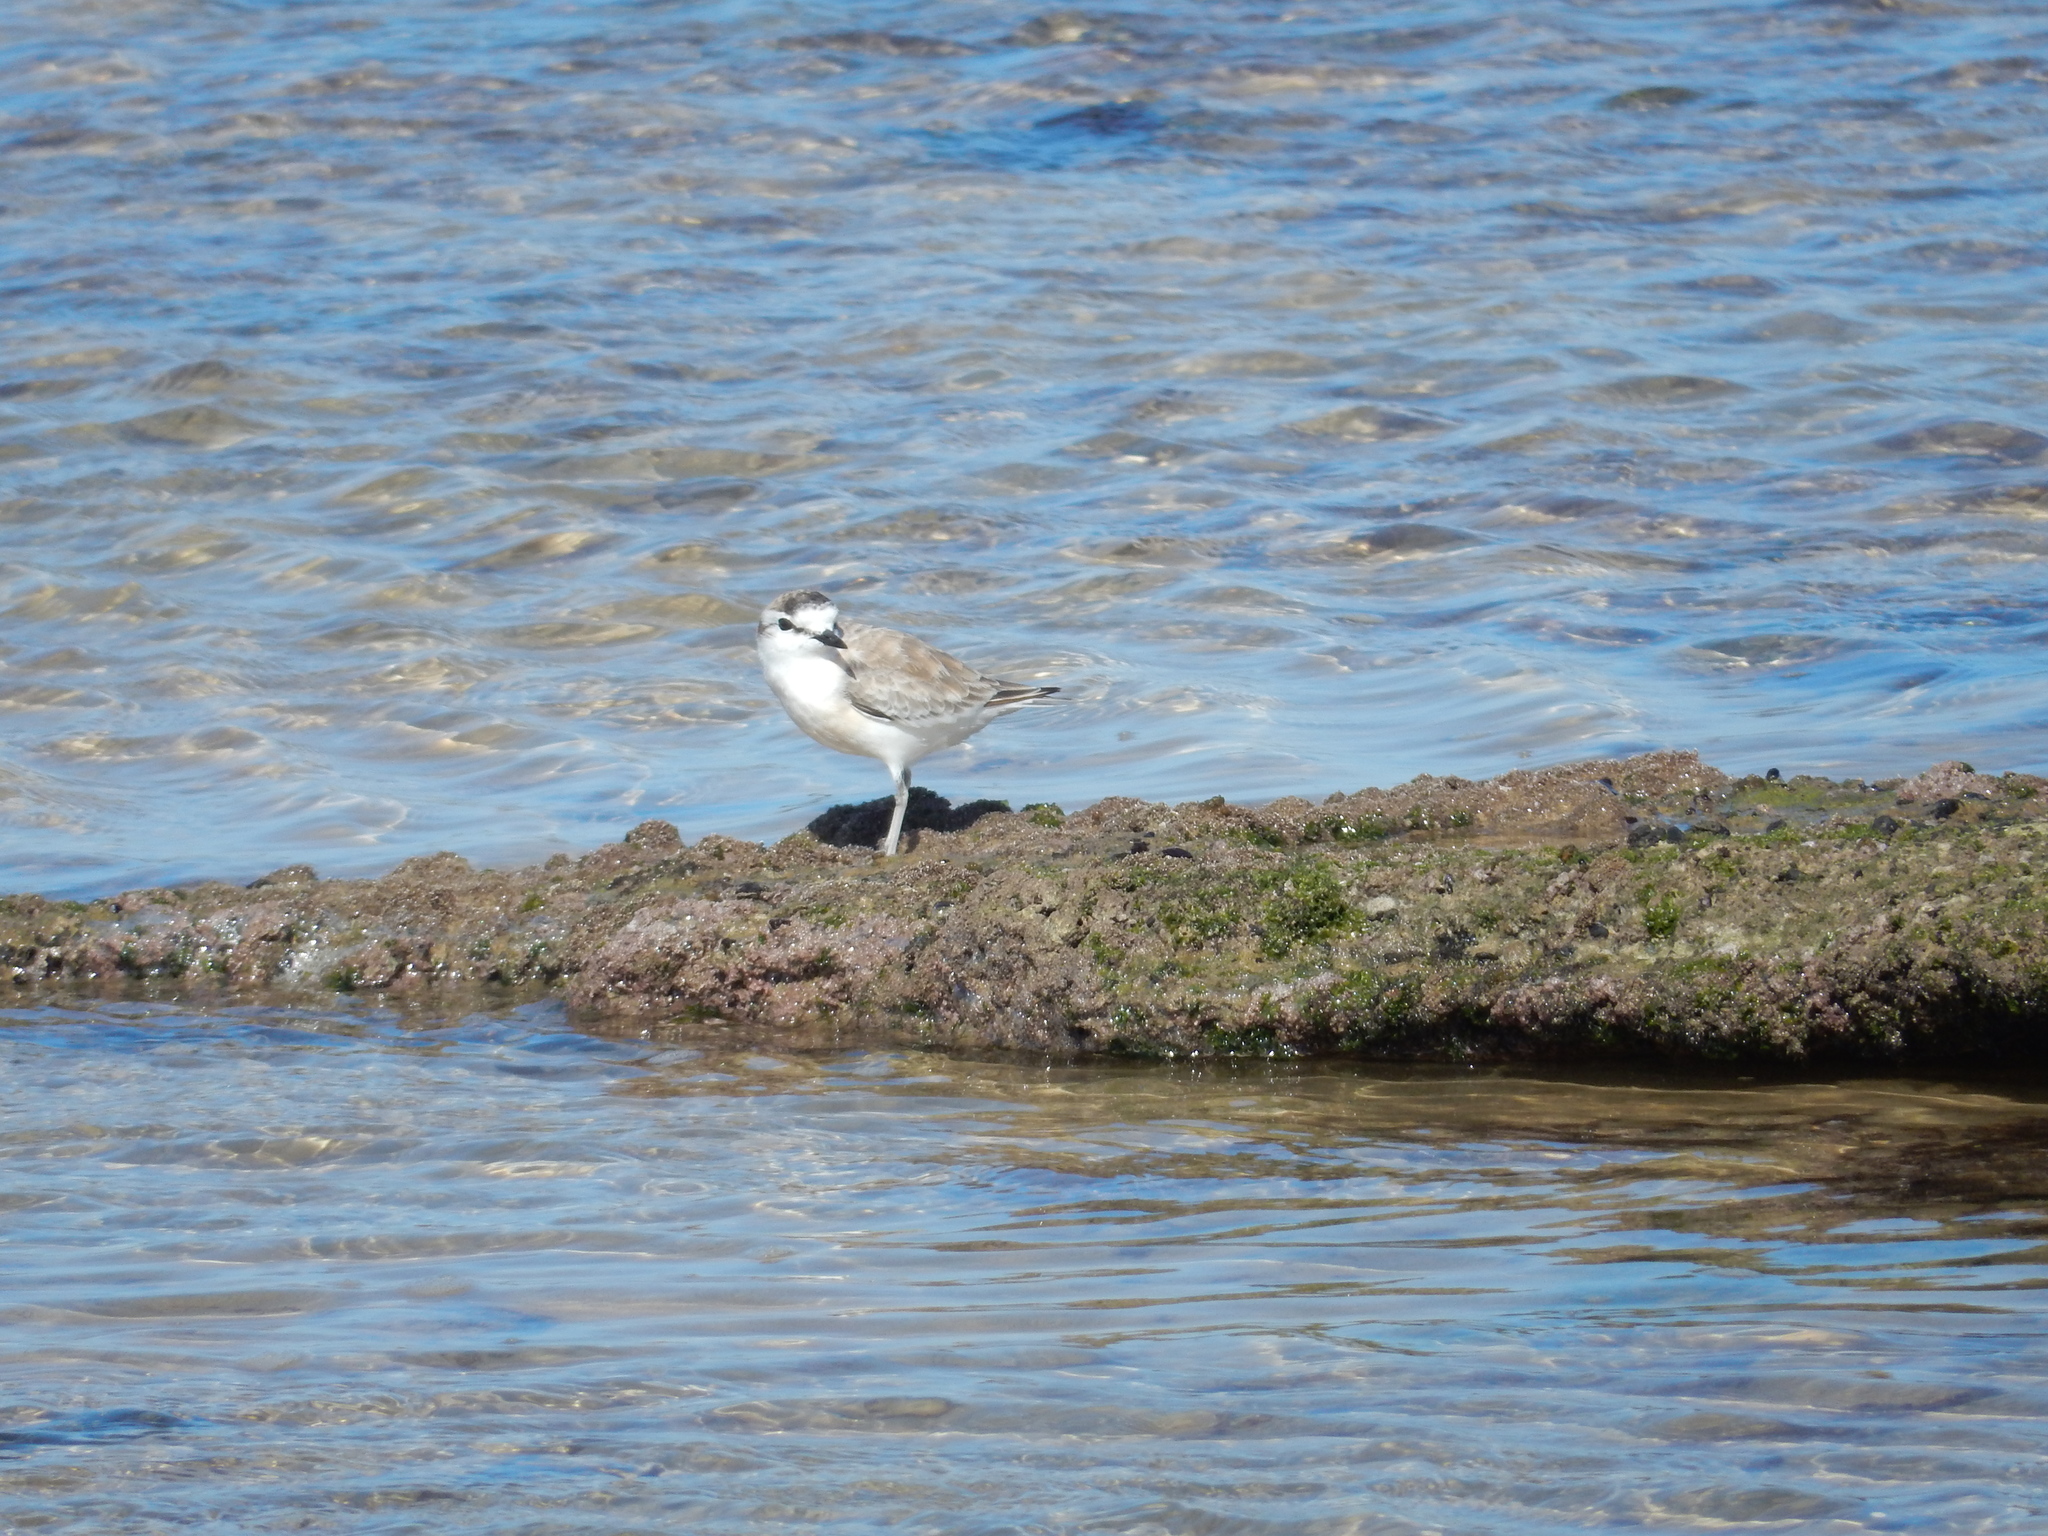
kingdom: Animalia
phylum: Chordata
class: Aves
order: Charadriiformes
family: Charadriidae
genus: Anarhynchus
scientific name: Anarhynchus
